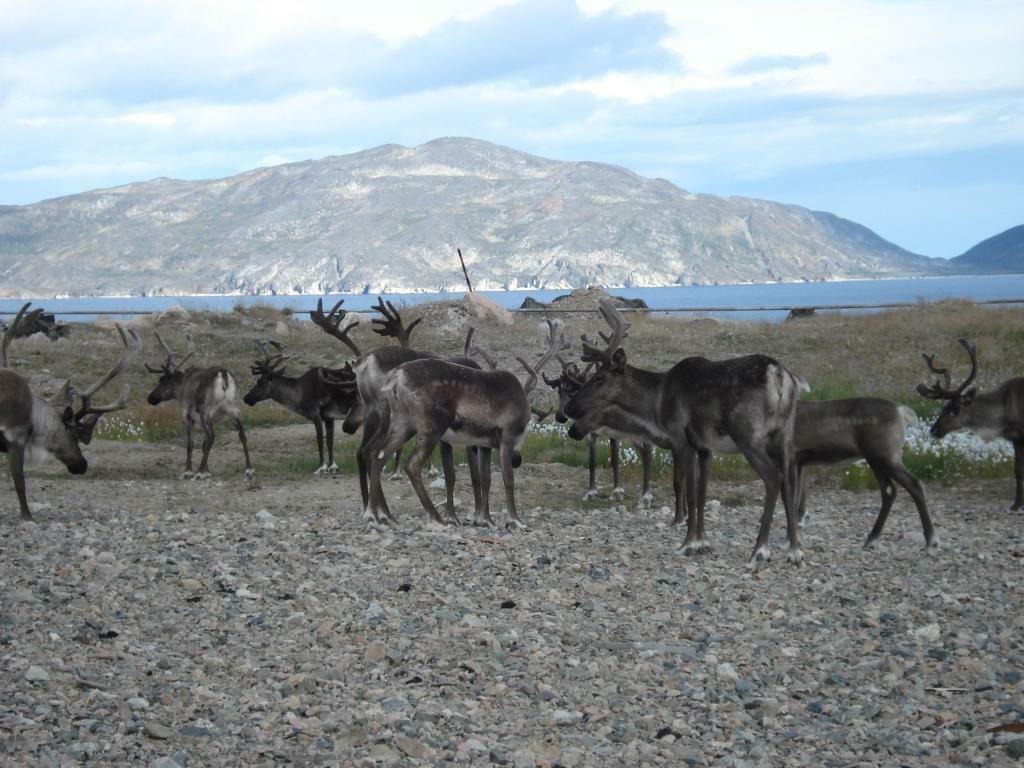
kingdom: Animalia
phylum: Chordata
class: Mammalia
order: Artiodactyla
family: Cervidae
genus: Rangifer
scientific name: Rangifer tarandus
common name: Reindeer
